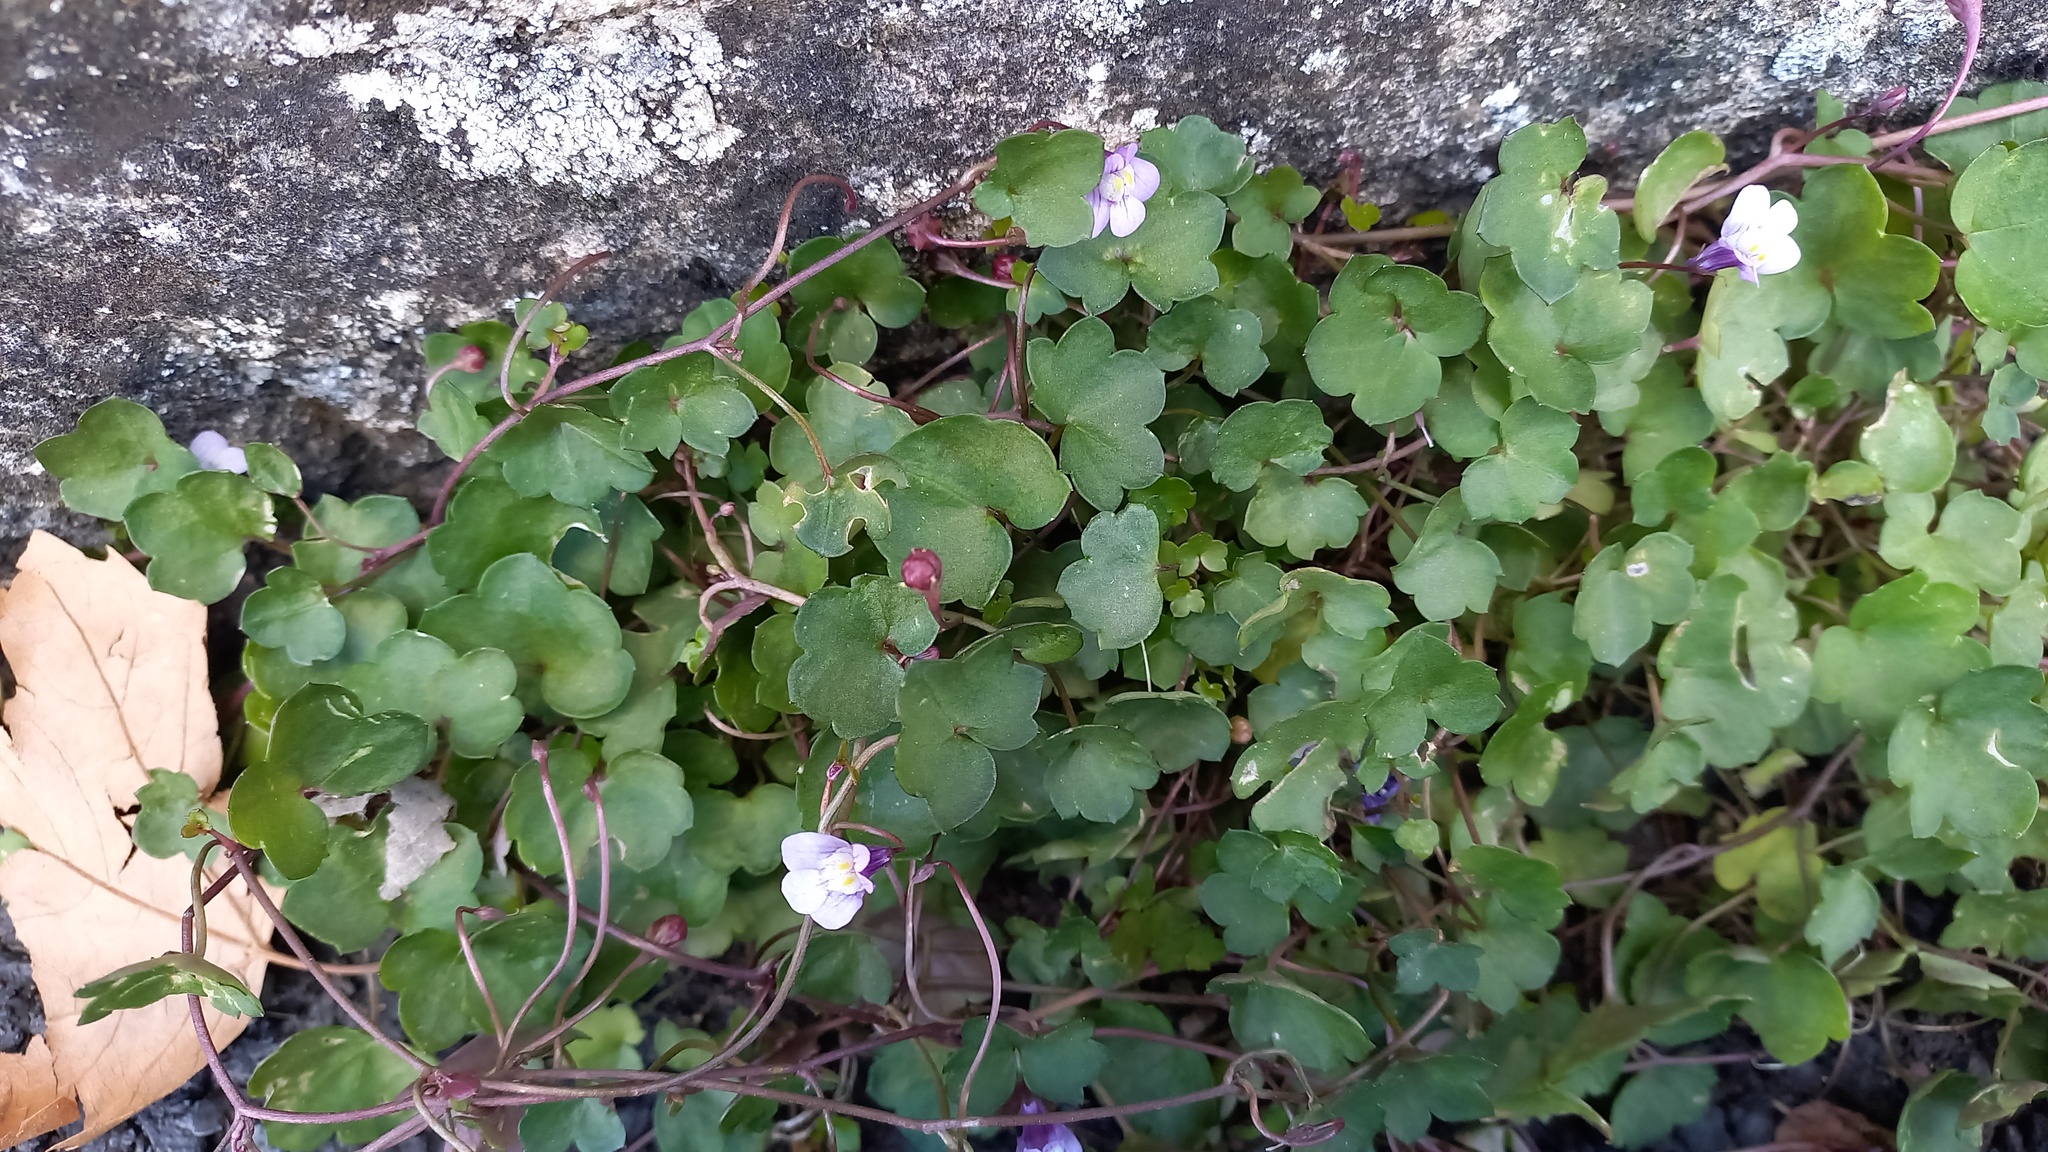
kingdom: Plantae
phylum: Tracheophyta
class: Magnoliopsida
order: Lamiales
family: Plantaginaceae
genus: Cymbalaria
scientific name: Cymbalaria muralis
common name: Ivy-leaved toadflax
